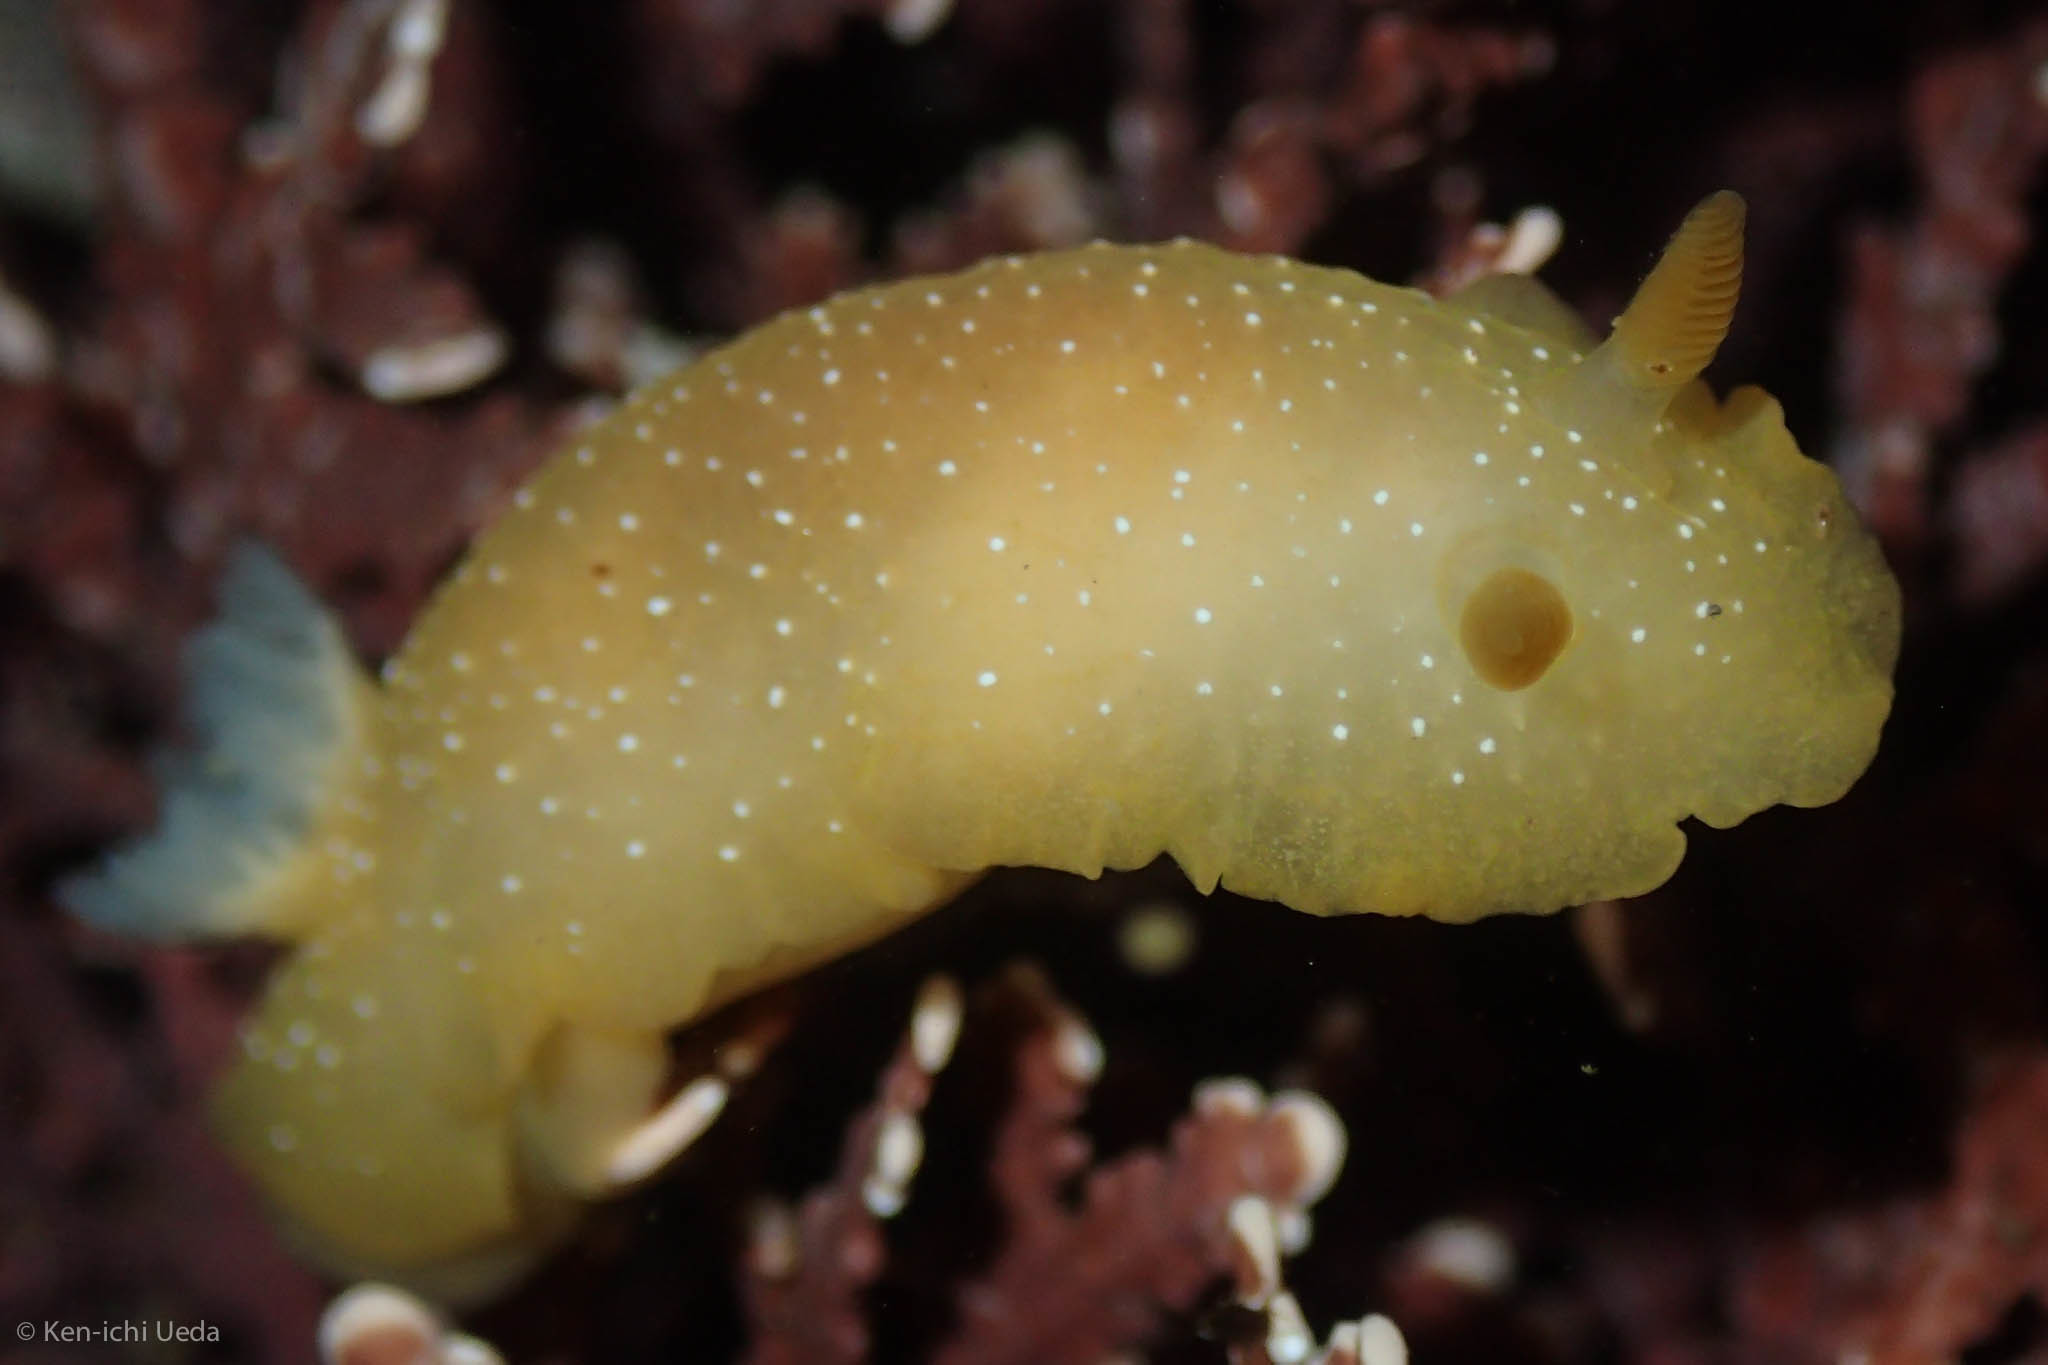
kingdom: Animalia
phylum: Mollusca
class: Gastropoda
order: Nudibranchia
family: Dendrodorididae
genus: Doriopsilla
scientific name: Doriopsilla fulva
